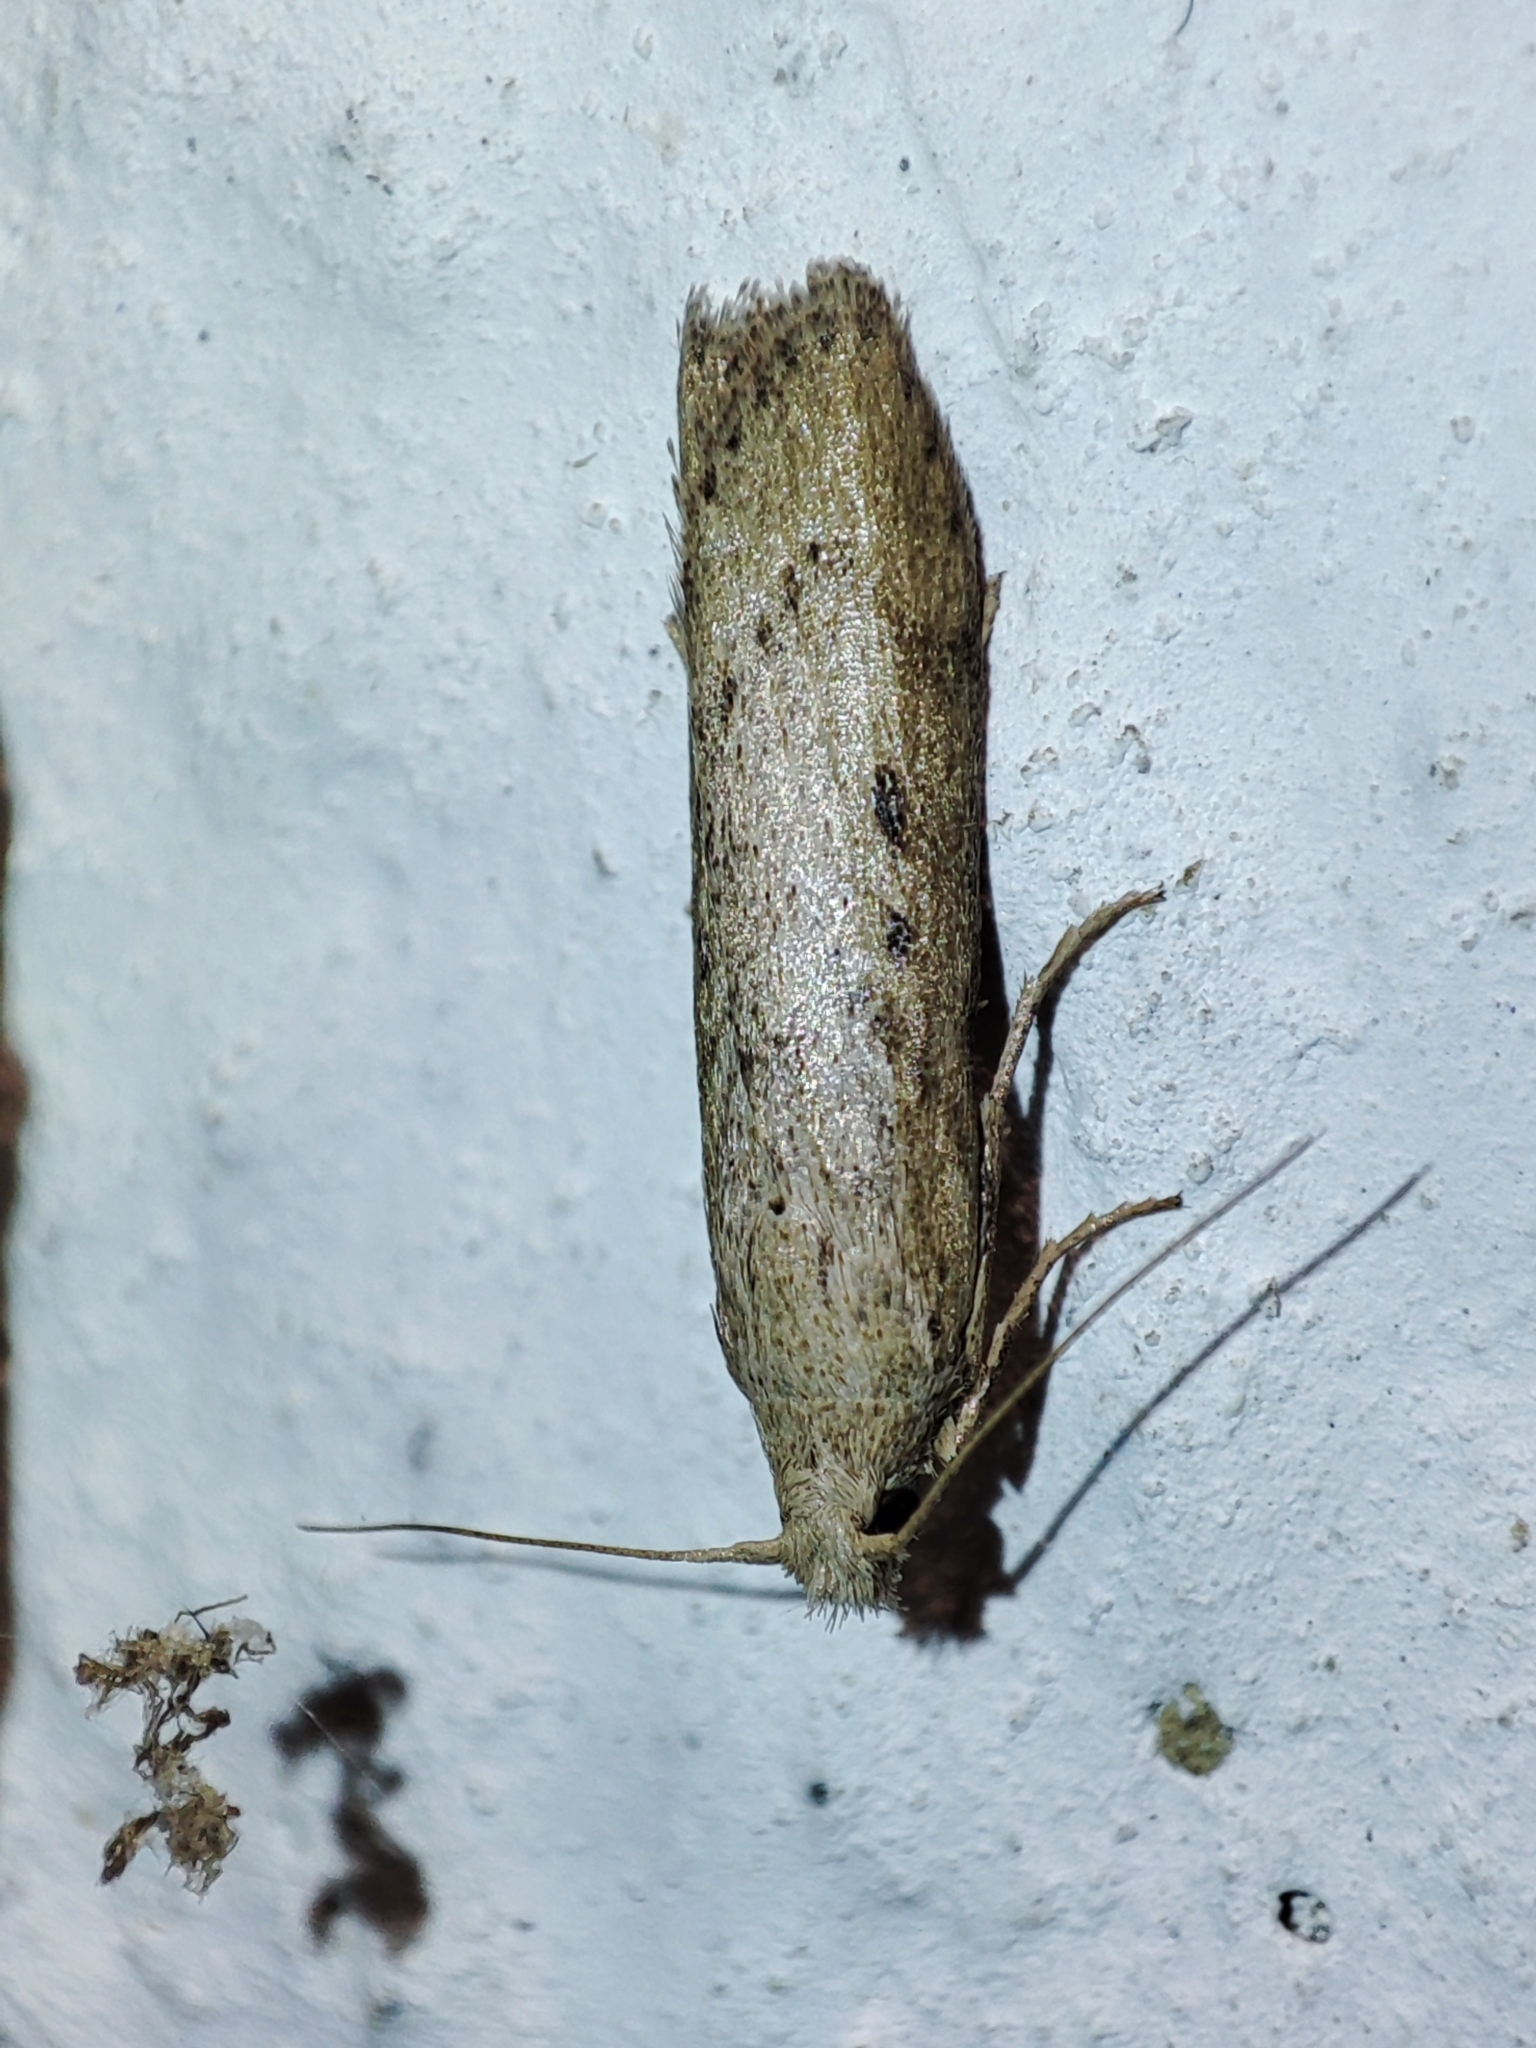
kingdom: Animalia
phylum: Arthropoda
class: Insecta
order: Lepidoptera
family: Pyralidae
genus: Aphomia
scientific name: Aphomia zelleri
